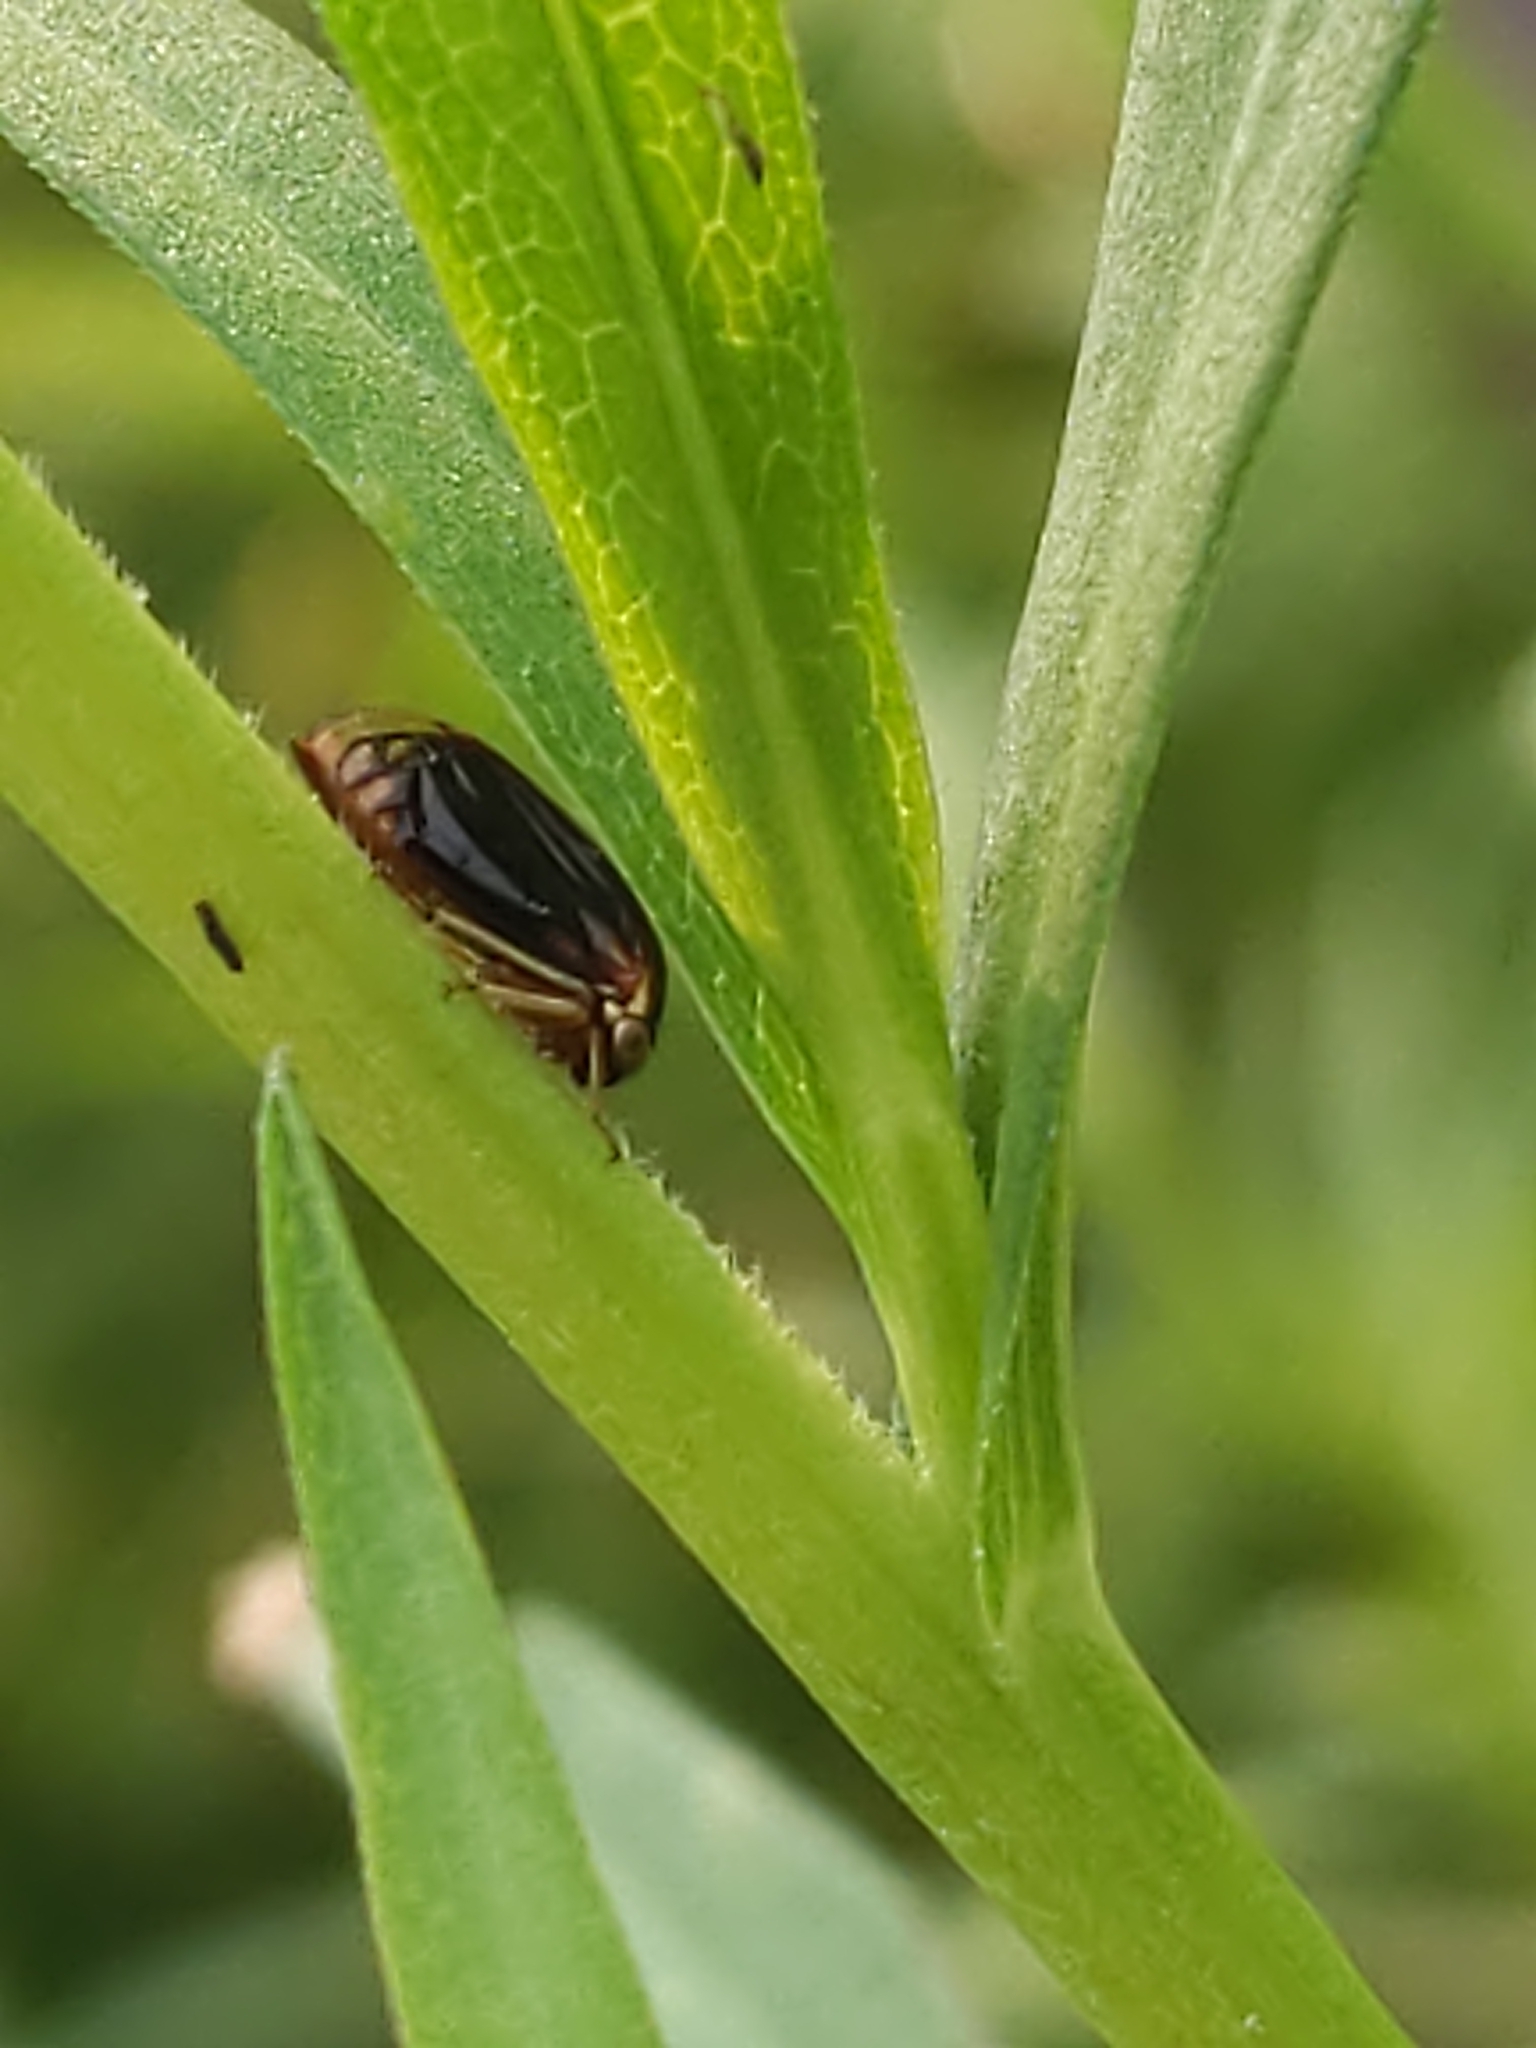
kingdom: Animalia
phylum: Arthropoda
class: Insecta
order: Hemiptera
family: Membracidae
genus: Acutalis
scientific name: Acutalis tartarea
